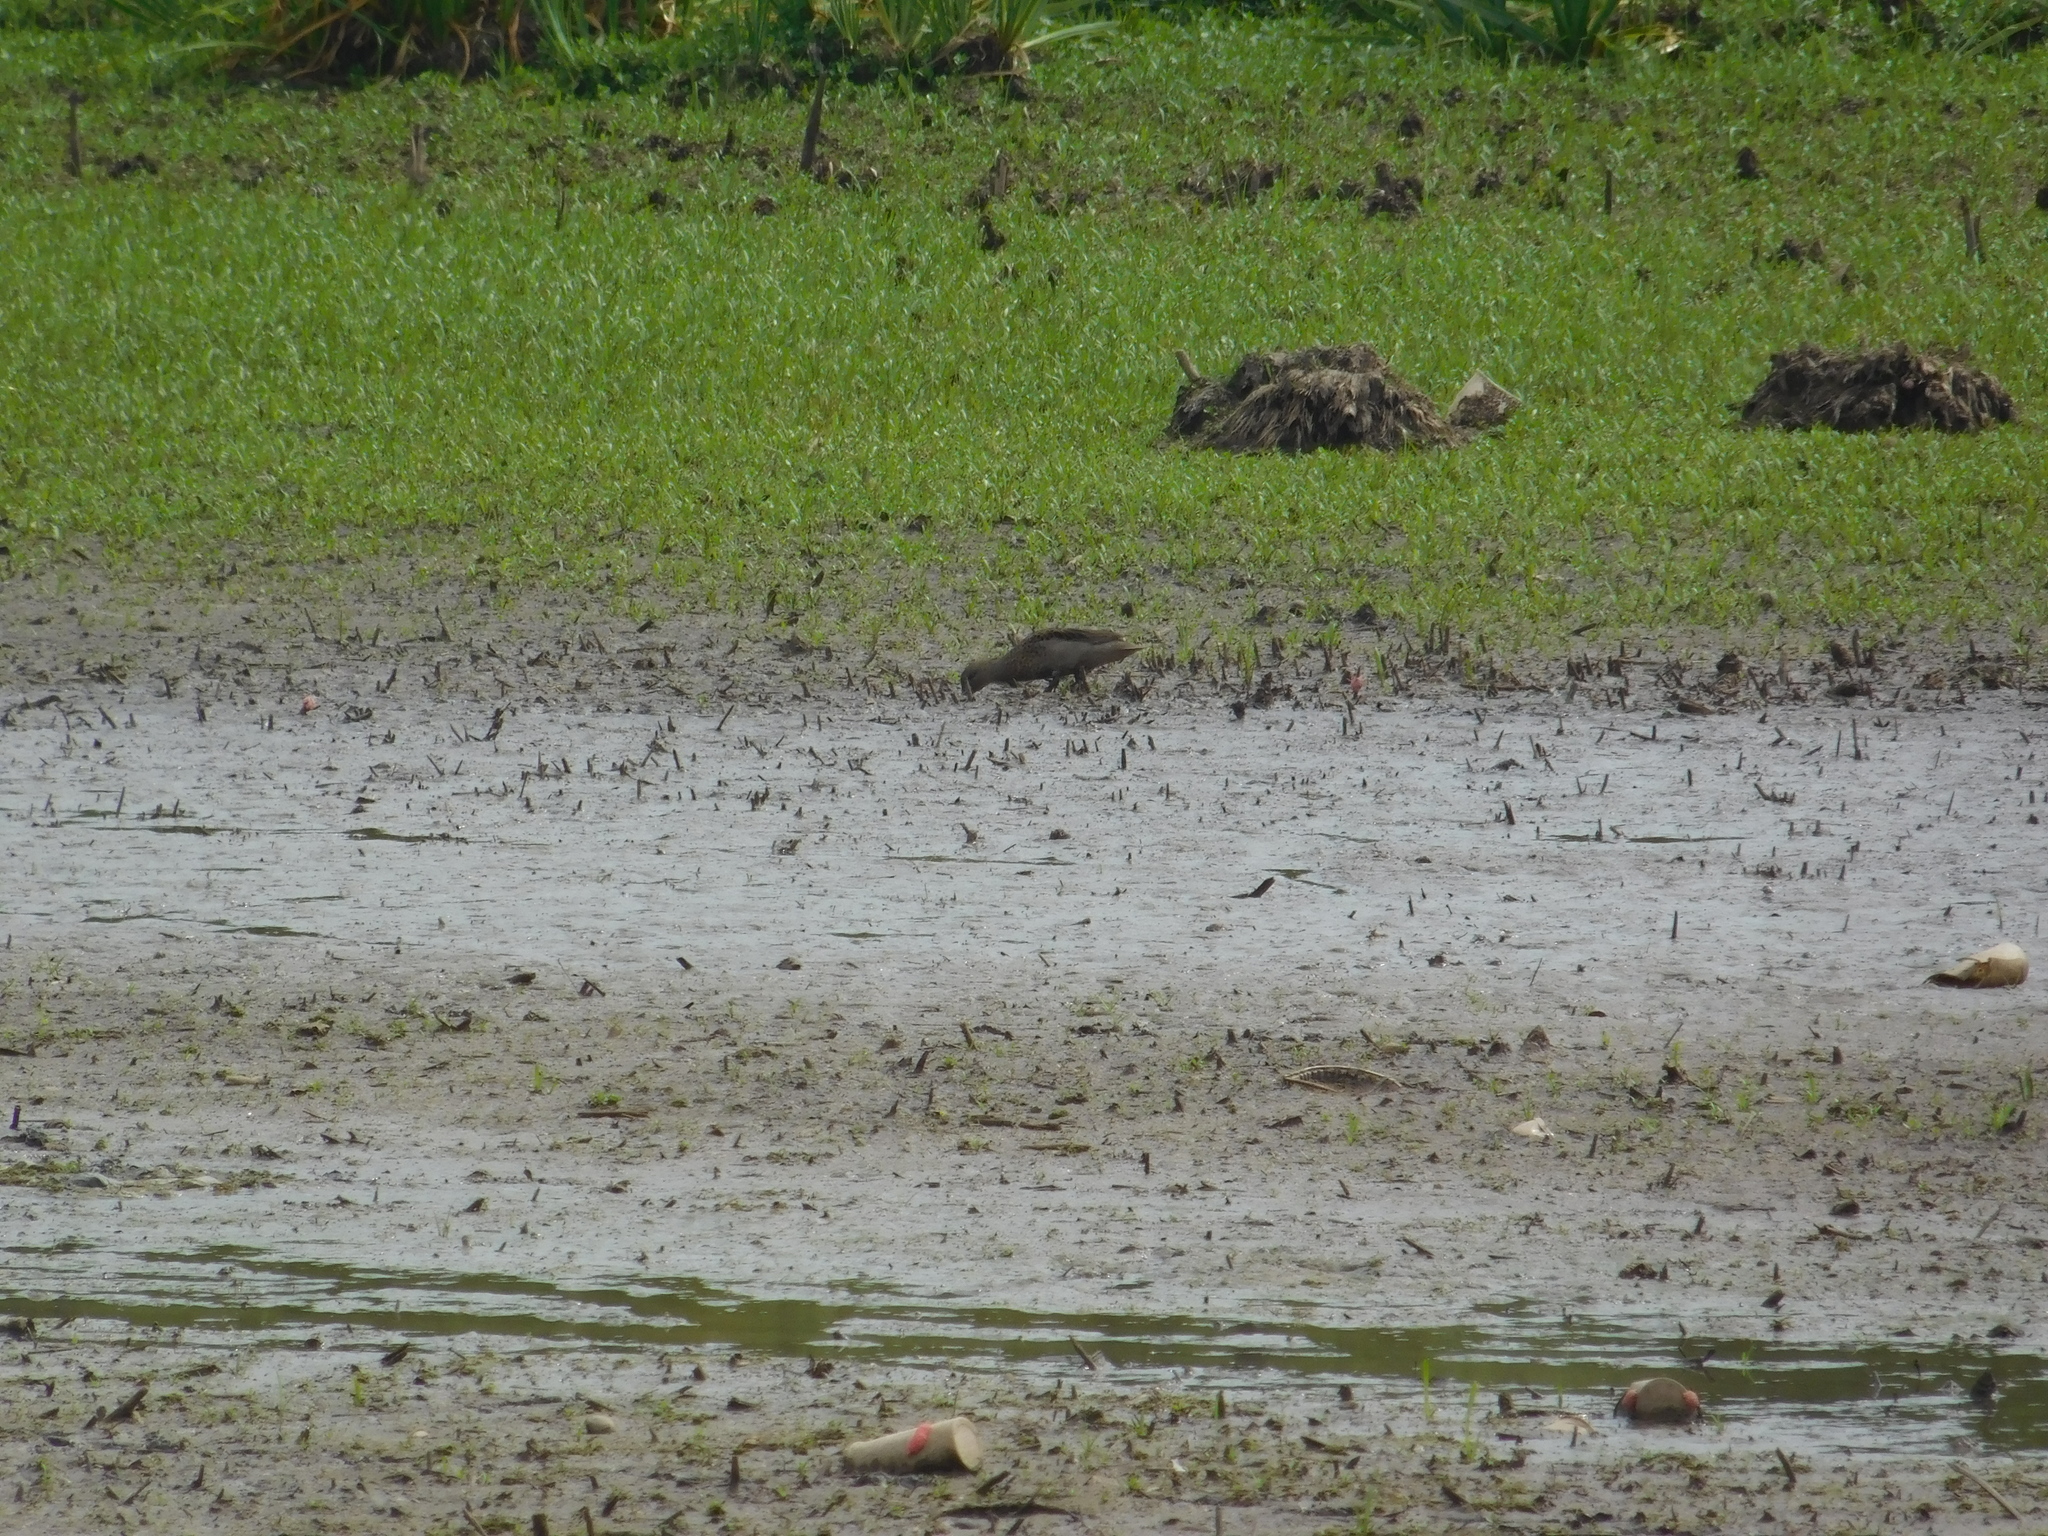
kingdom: Animalia
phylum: Chordata
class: Aves
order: Gruiformes
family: Rallidae
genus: Gallinula
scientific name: Gallinula melanops
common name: Spot-flanked gallinule
